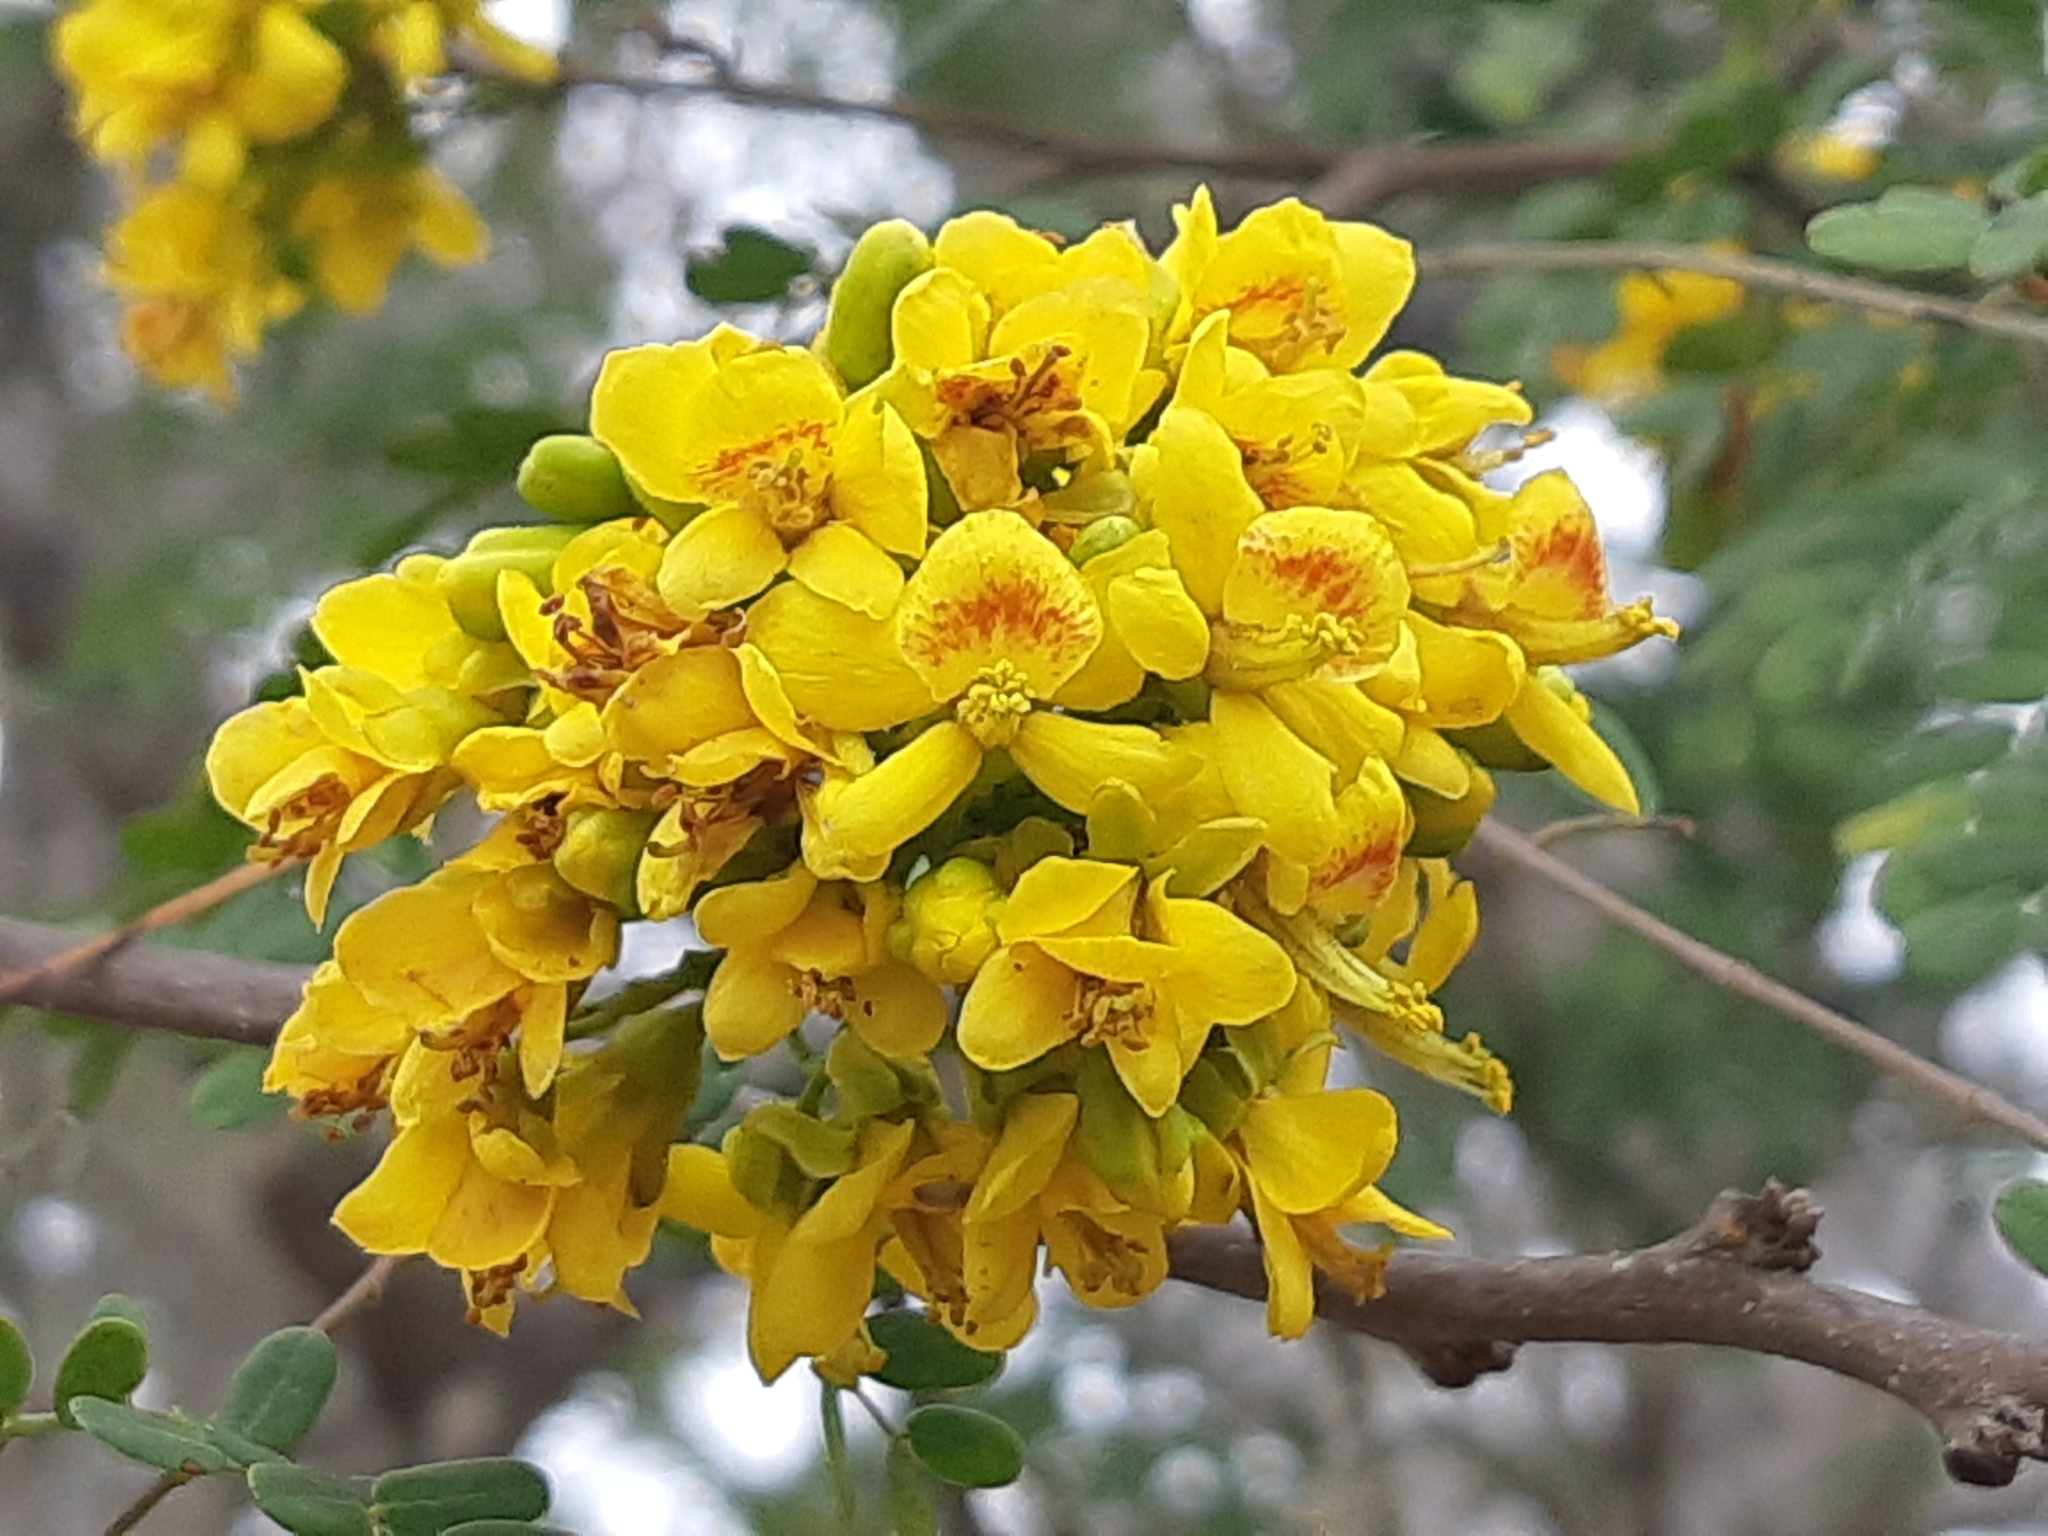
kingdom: Plantae
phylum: Tracheophyta
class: Magnoliopsida
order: Fabales
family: Fabaceae
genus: Libidibia
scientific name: Libidibia glabrata
